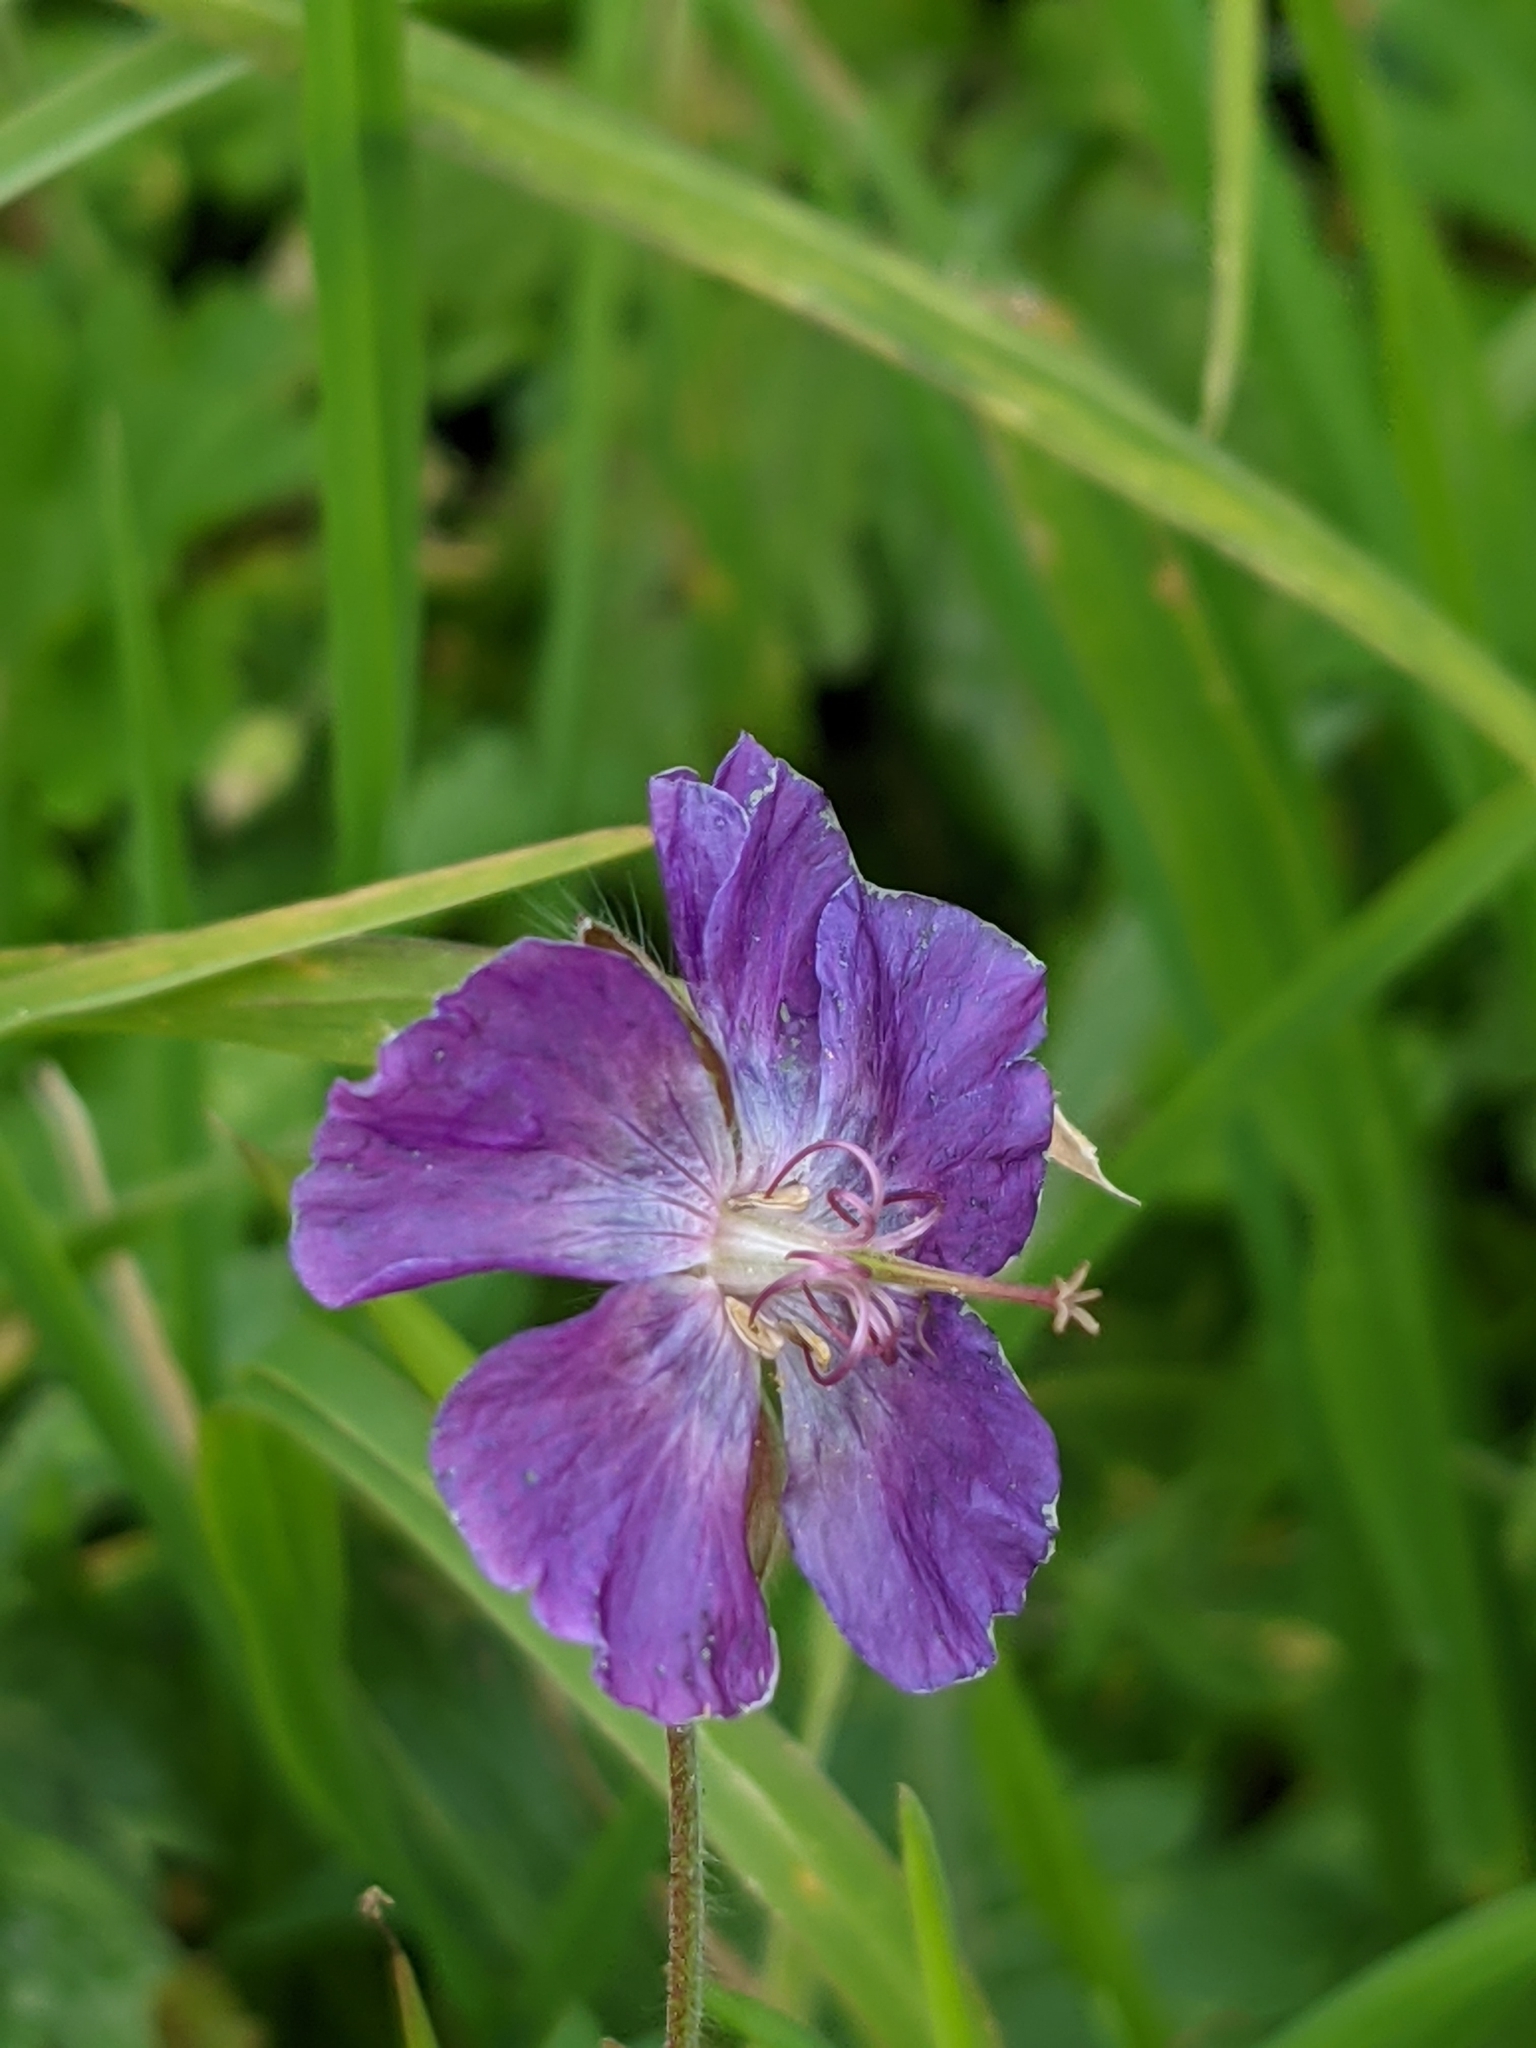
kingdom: Plantae
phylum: Tracheophyta
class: Magnoliopsida
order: Geraniales
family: Geraniaceae
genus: Geranium
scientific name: Geranium phaeum
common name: Dusky crane's-bill
